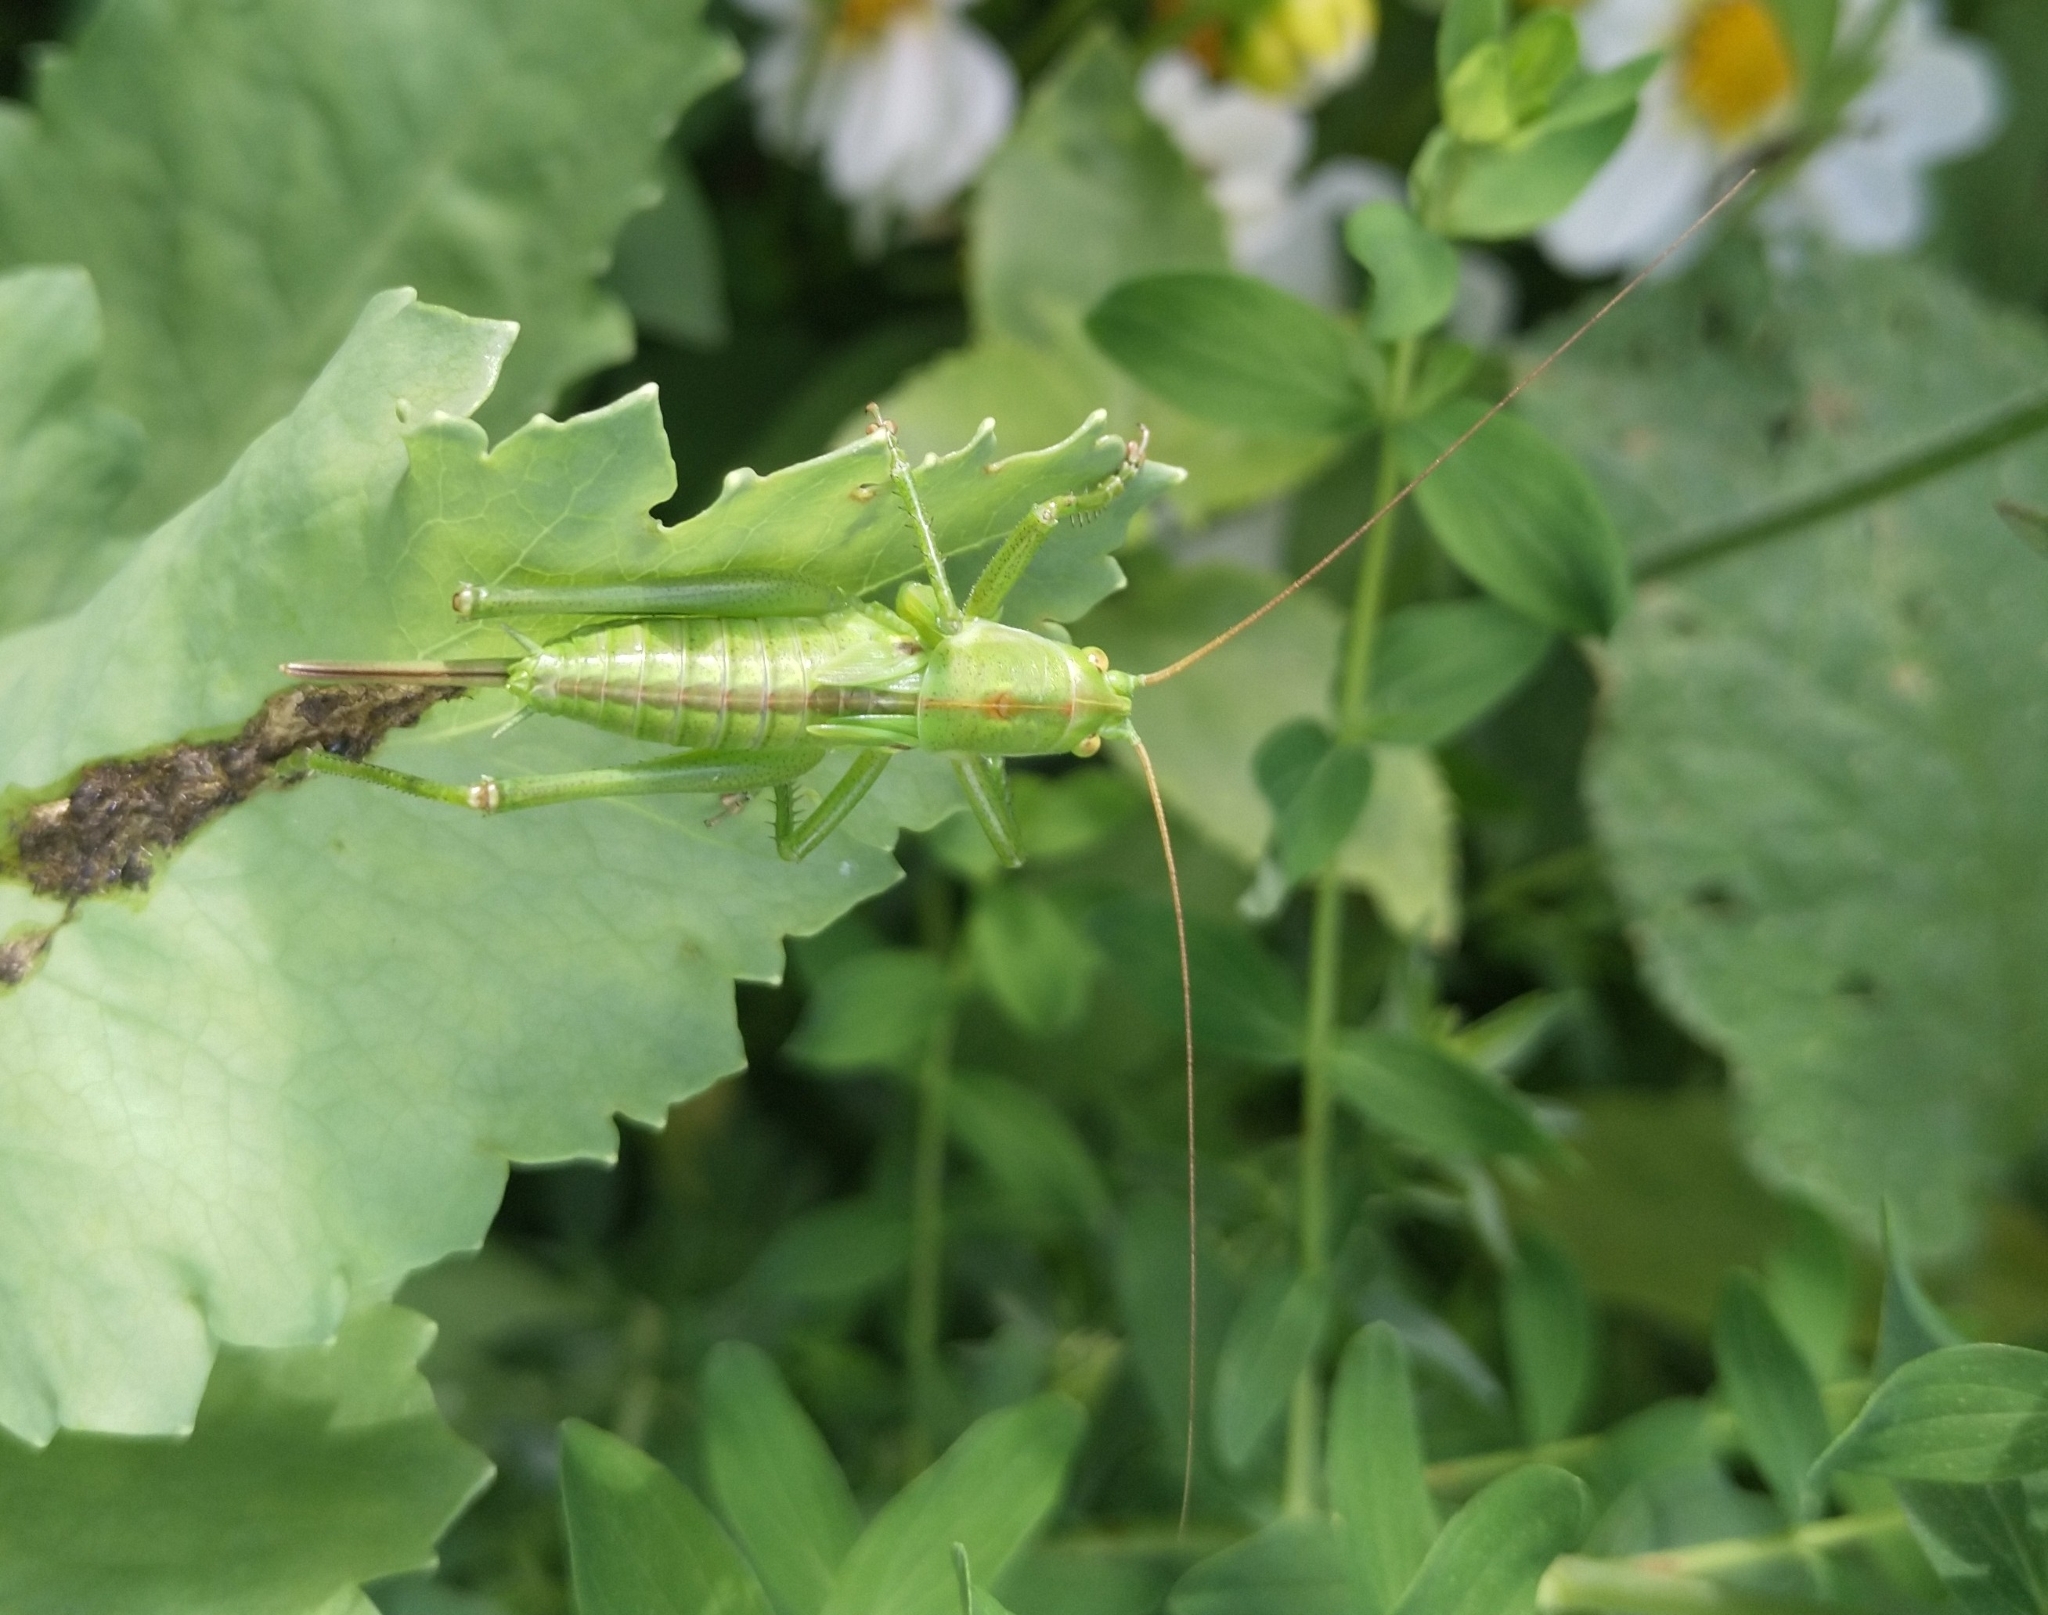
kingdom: Animalia
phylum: Arthropoda
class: Insecta
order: Orthoptera
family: Tettigoniidae
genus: Tettigonia
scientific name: Tettigonia viridissima
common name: Great green bush-cricket
